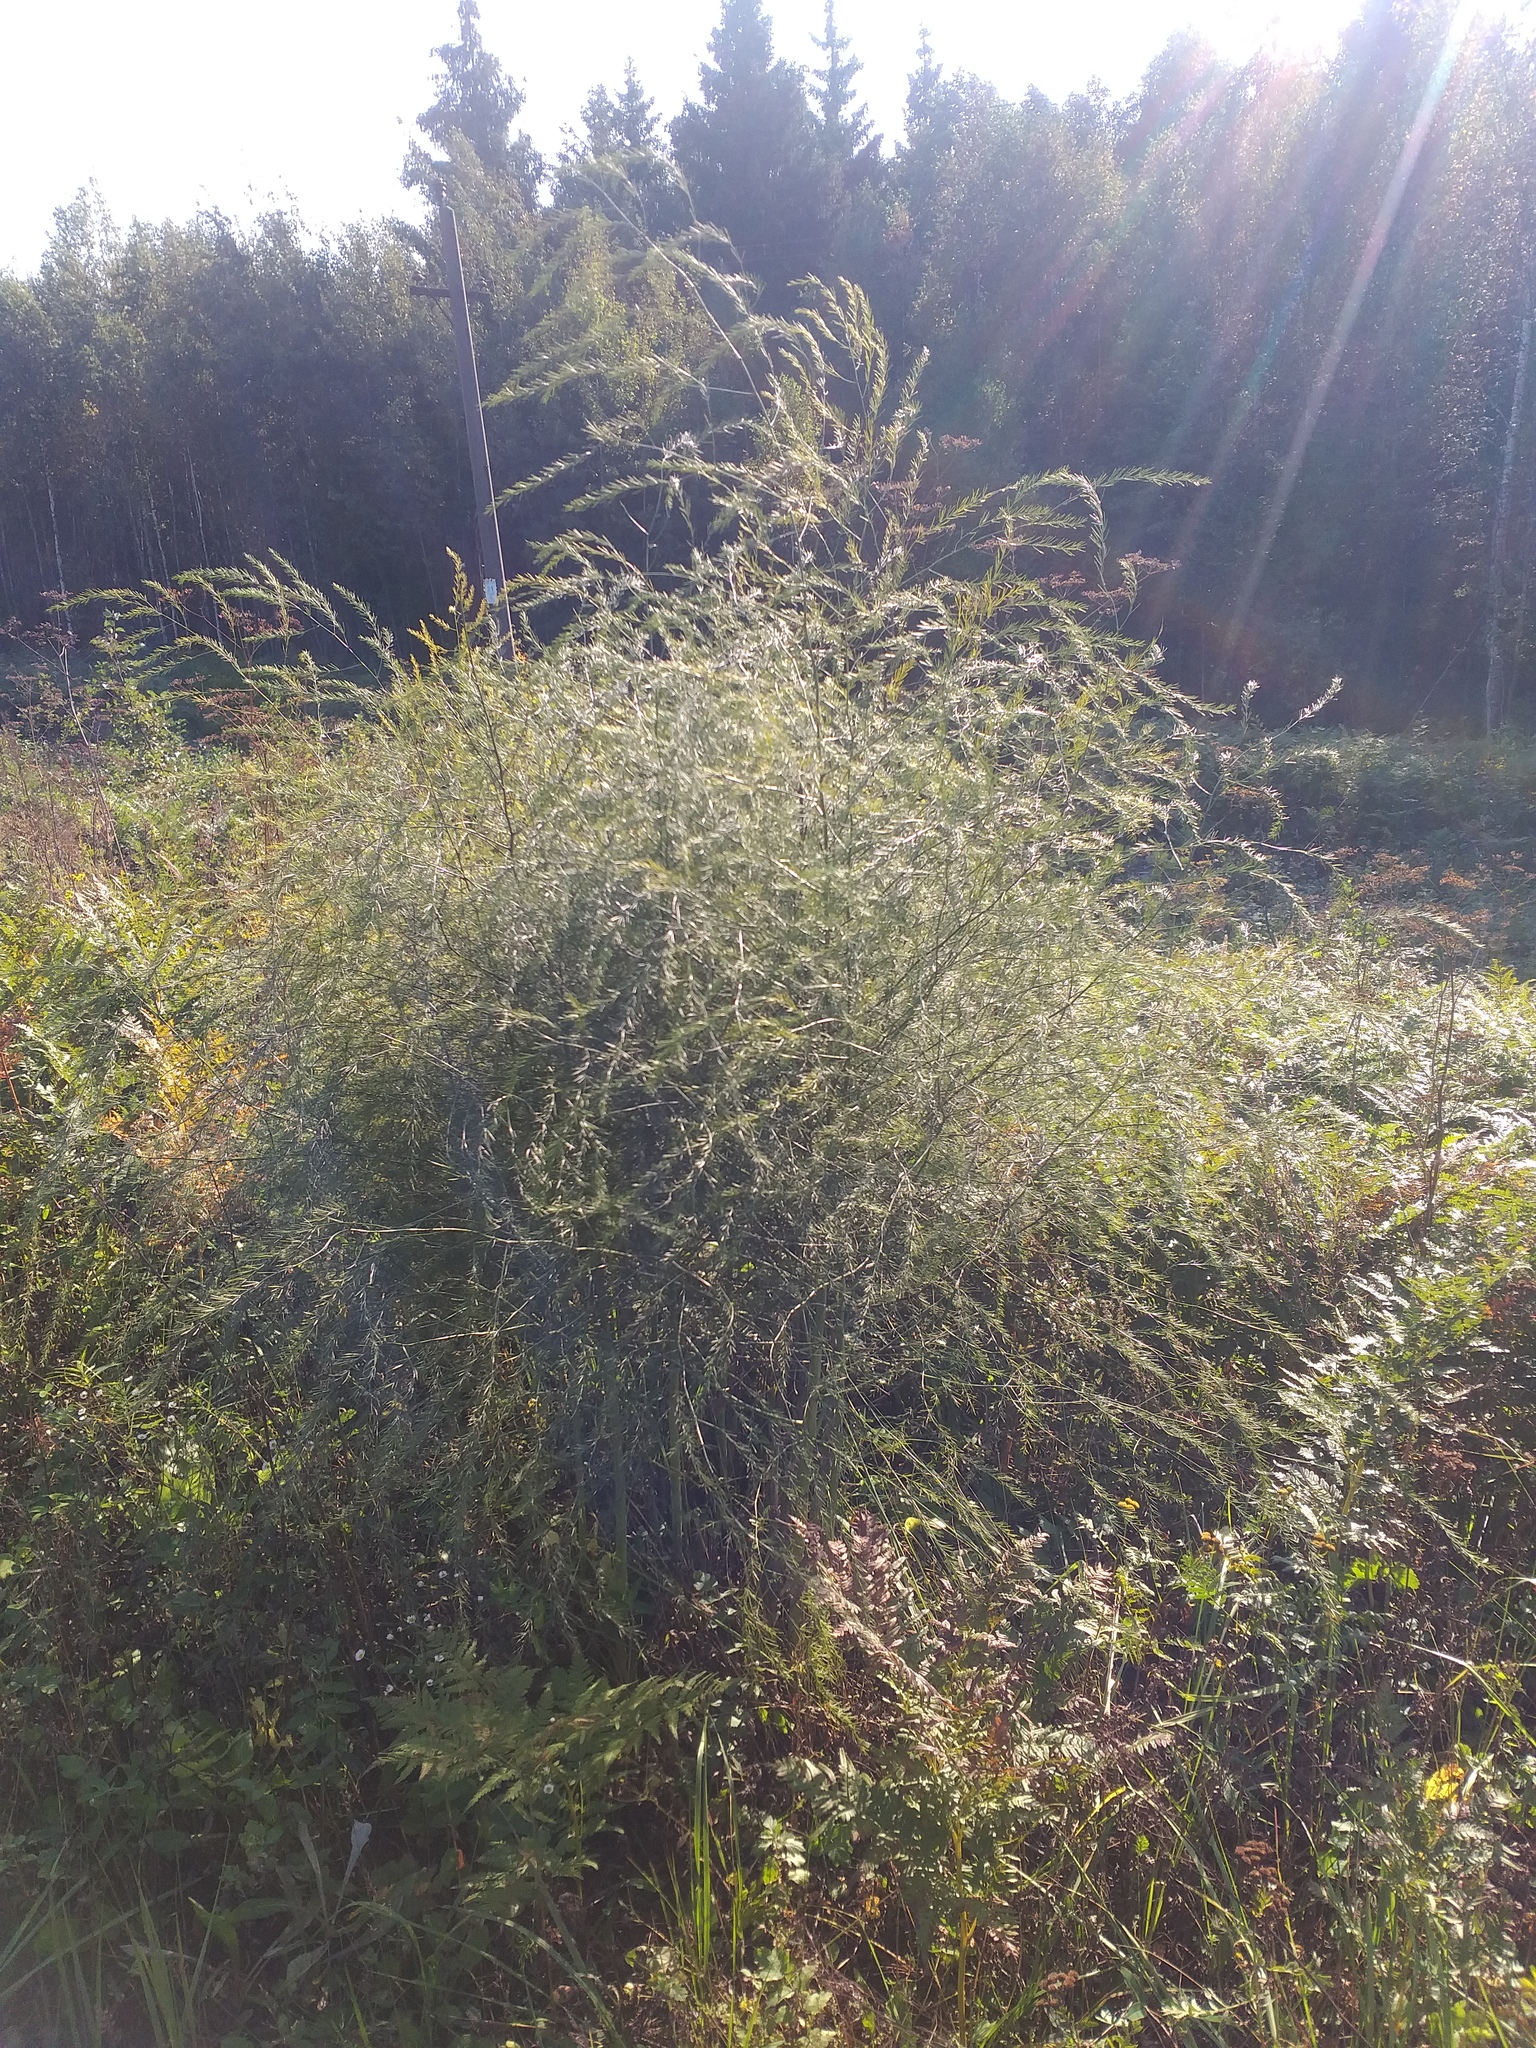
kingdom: Plantae
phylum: Tracheophyta
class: Liliopsida
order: Asparagales
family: Asparagaceae
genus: Asparagus
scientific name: Asparagus officinalis
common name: Garden asparagus
